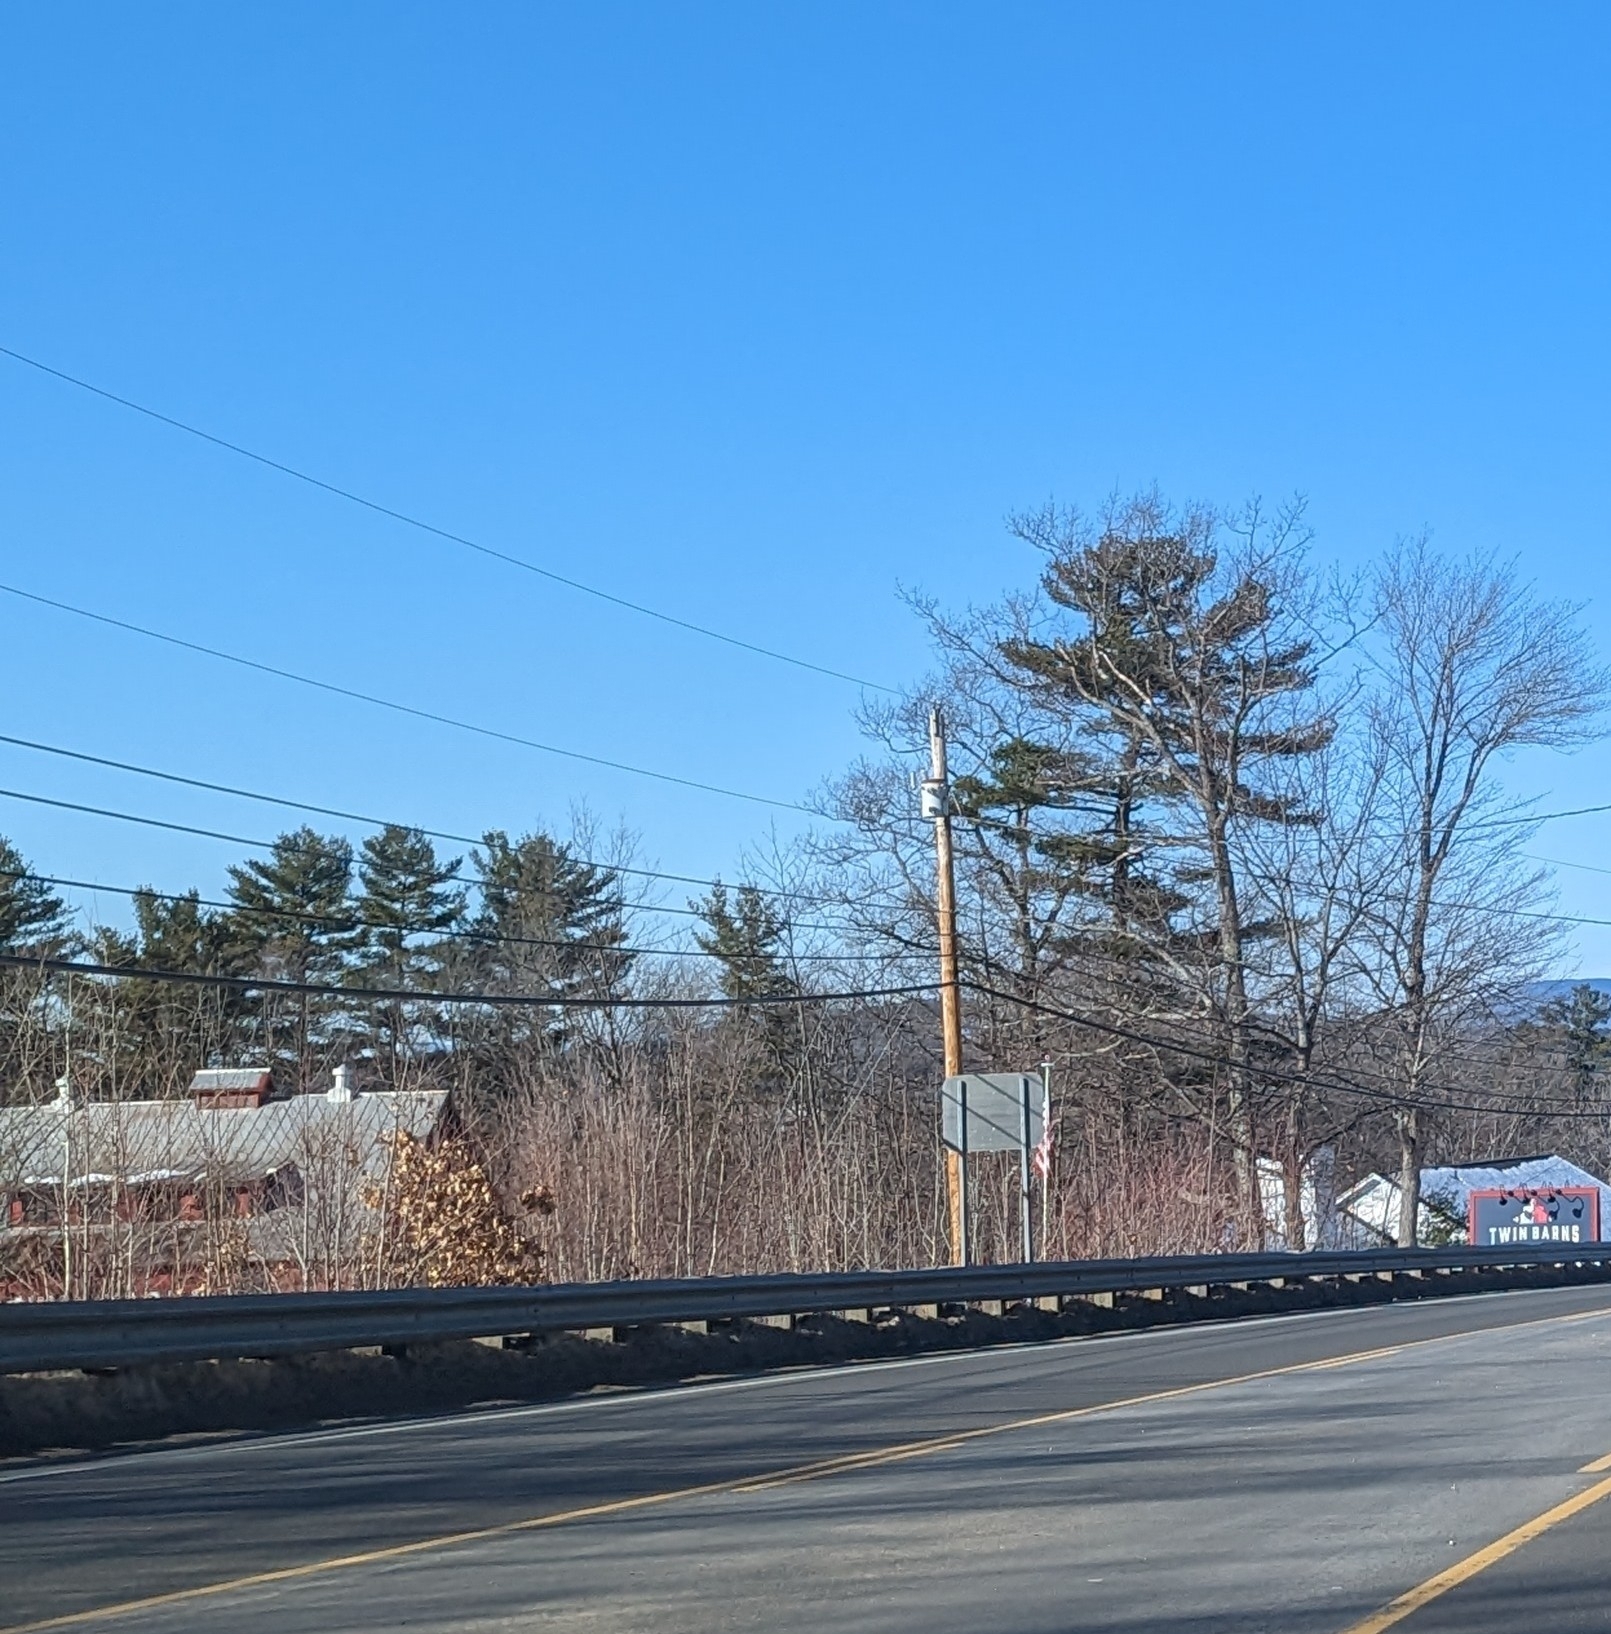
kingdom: Plantae
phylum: Tracheophyta
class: Pinopsida
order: Pinales
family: Pinaceae
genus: Pinus
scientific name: Pinus strobus
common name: Weymouth pine
